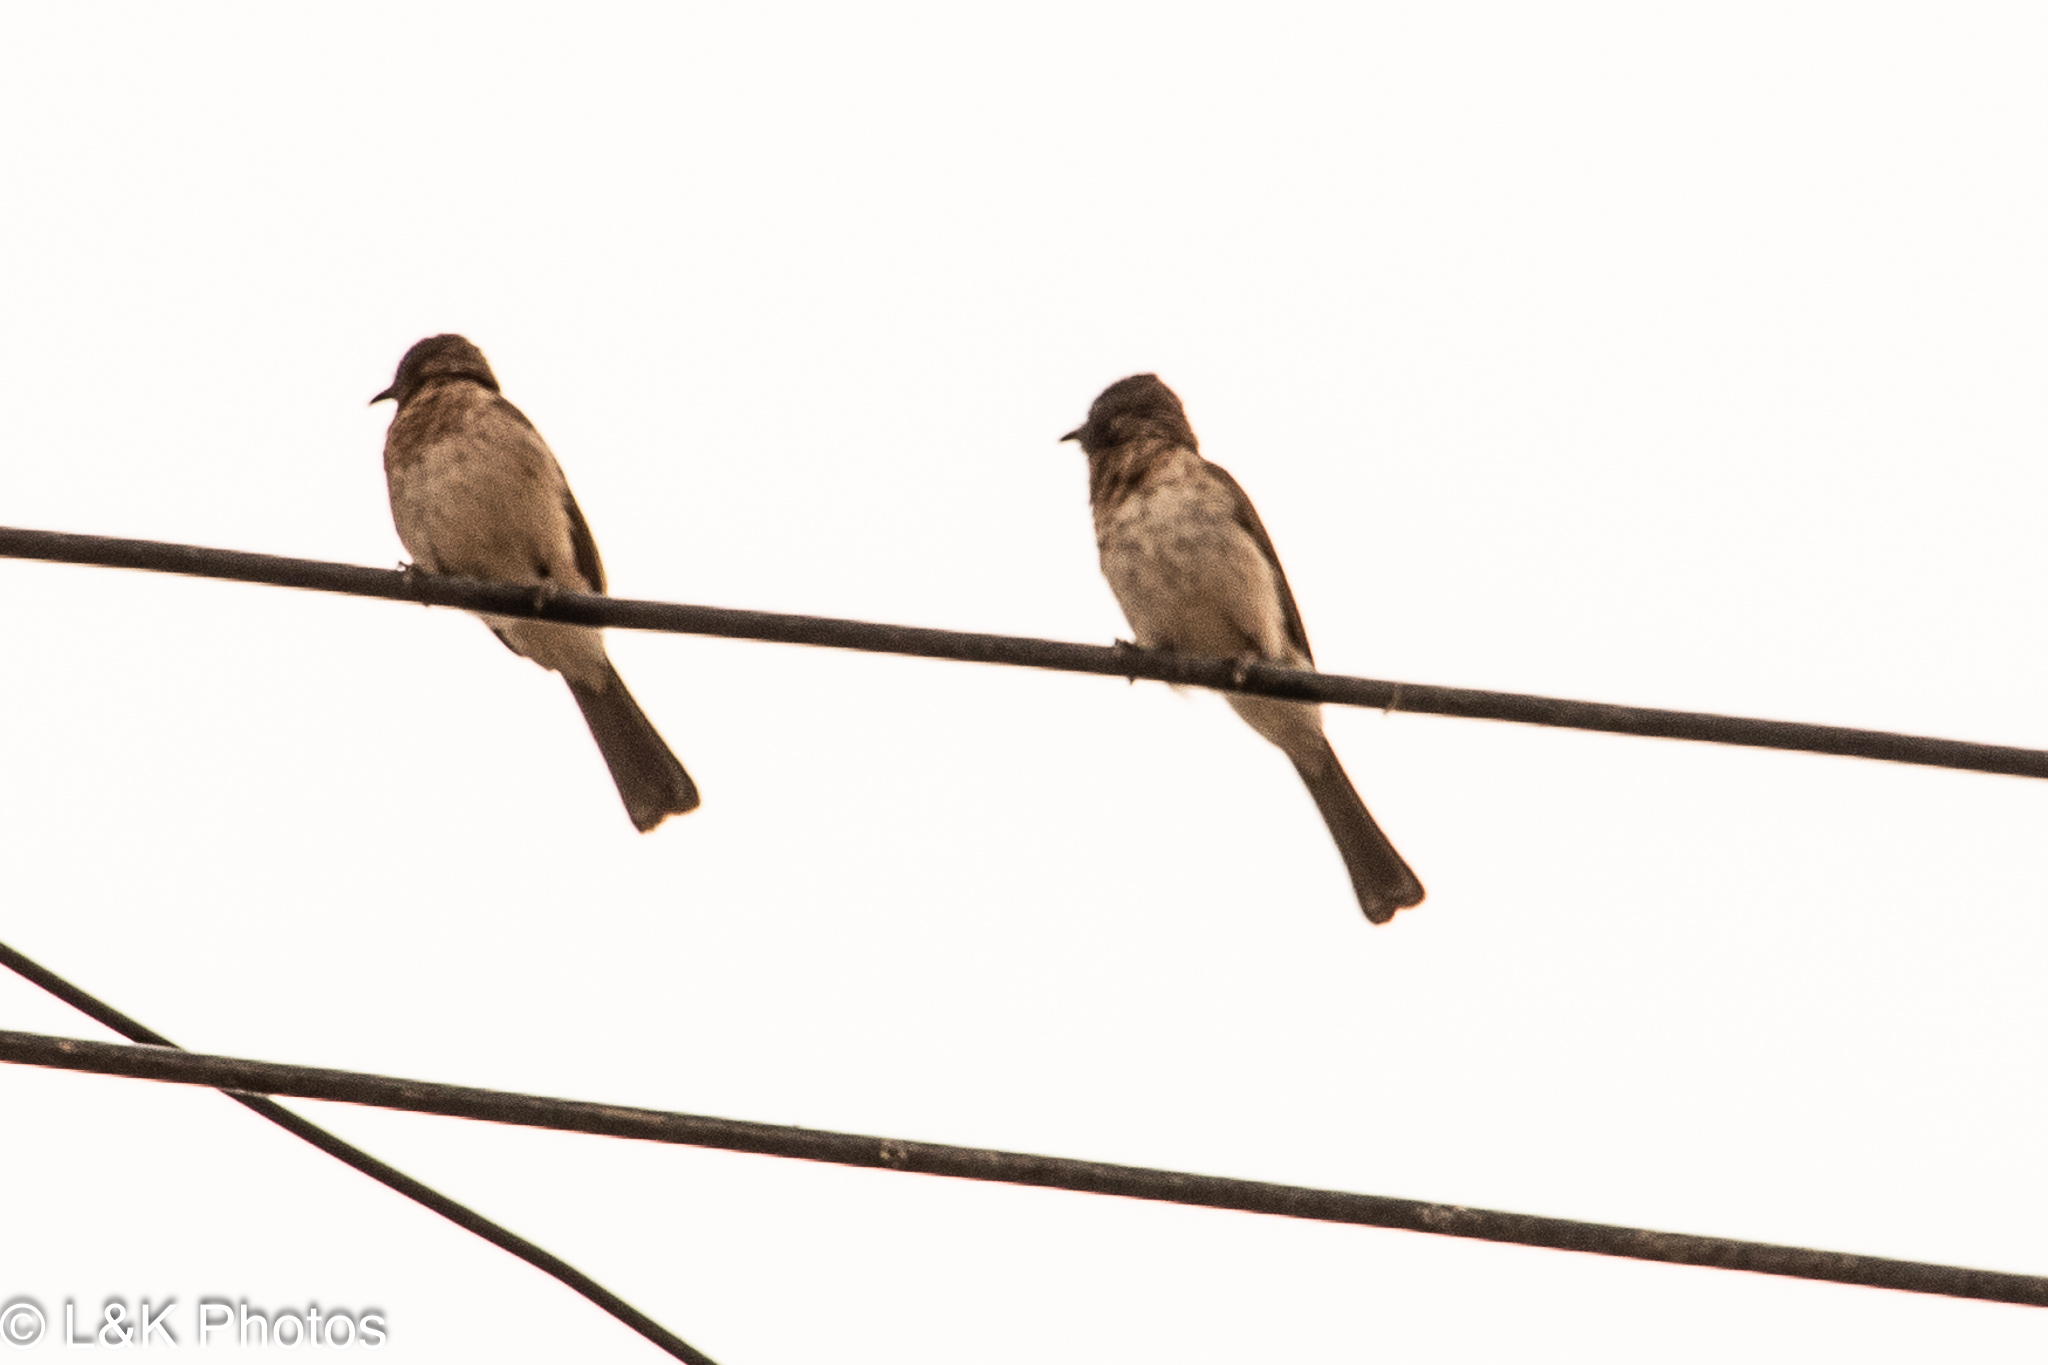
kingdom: Animalia
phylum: Chordata
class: Aves
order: Passeriformes
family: Pycnonotidae
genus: Pycnonotus
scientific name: Pycnonotus barbatus
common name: Common bulbul
